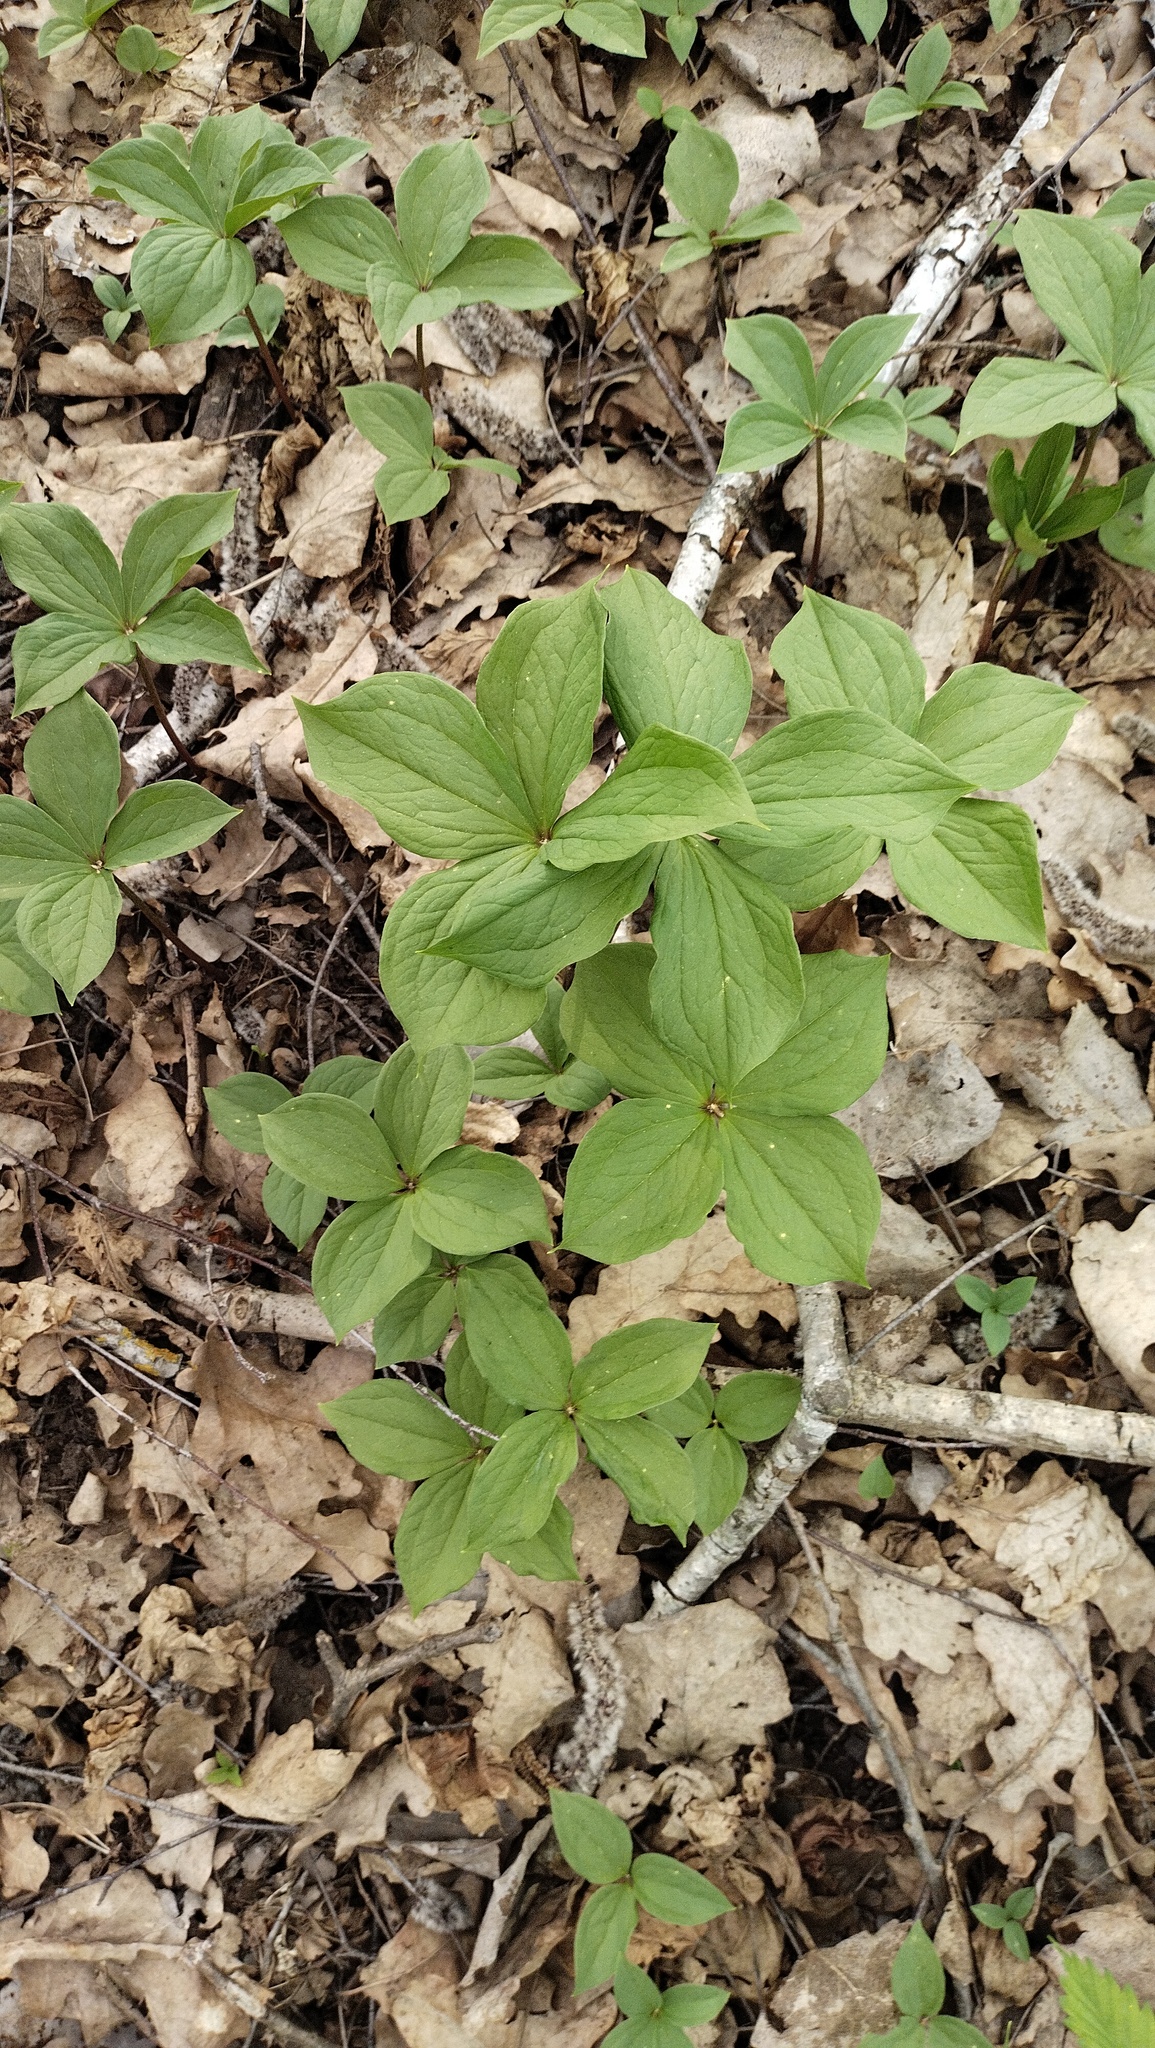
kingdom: Plantae
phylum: Tracheophyta
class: Liliopsida
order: Liliales
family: Melanthiaceae
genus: Paris
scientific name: Paris quadrifolia
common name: Herb-paris
